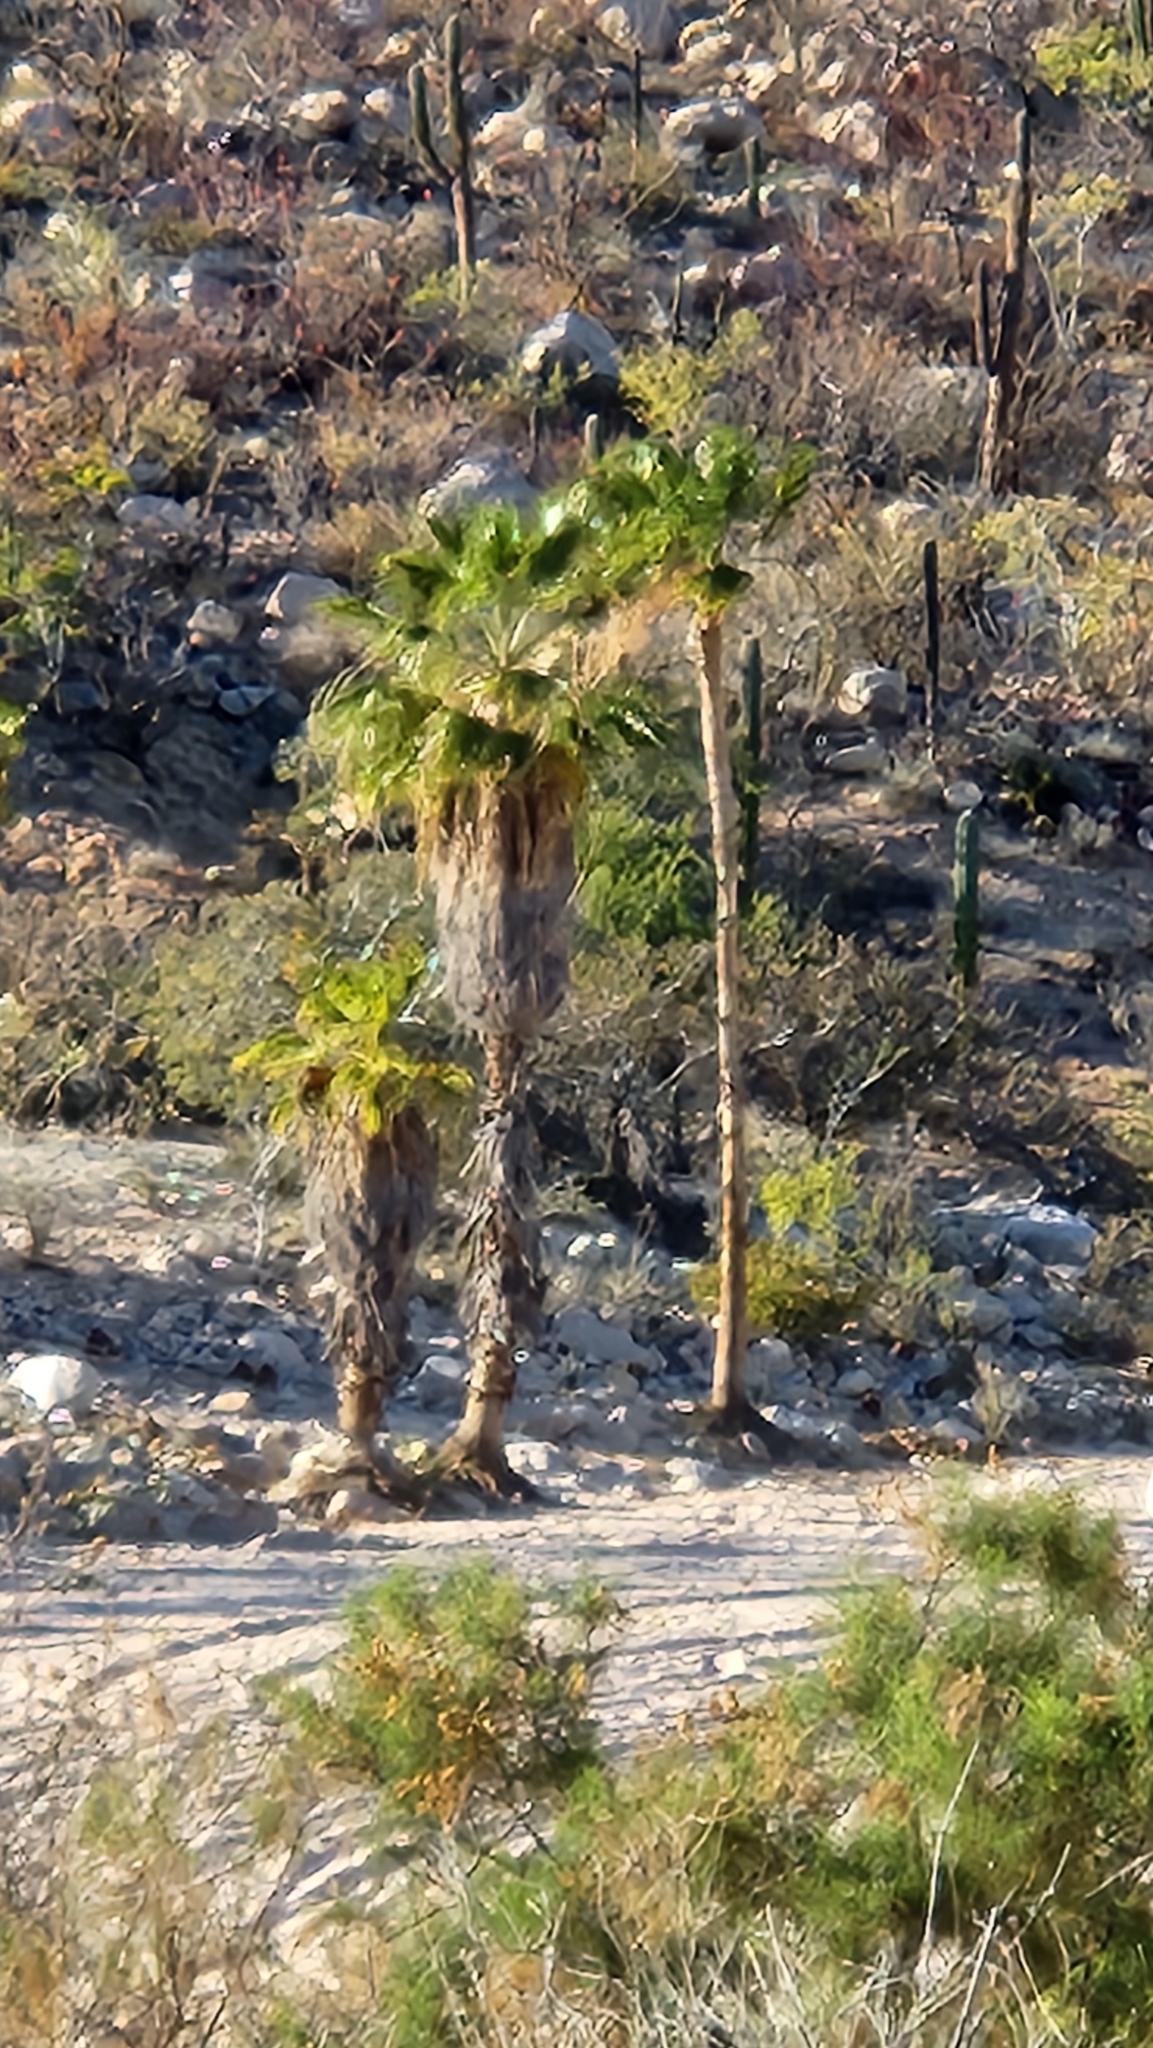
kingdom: Plantae
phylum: Tracheophyta
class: Liliopsida
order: Arecales
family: Arecaceae
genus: Washingtonia
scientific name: Washingtonia robusta
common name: Mexican fan palm
